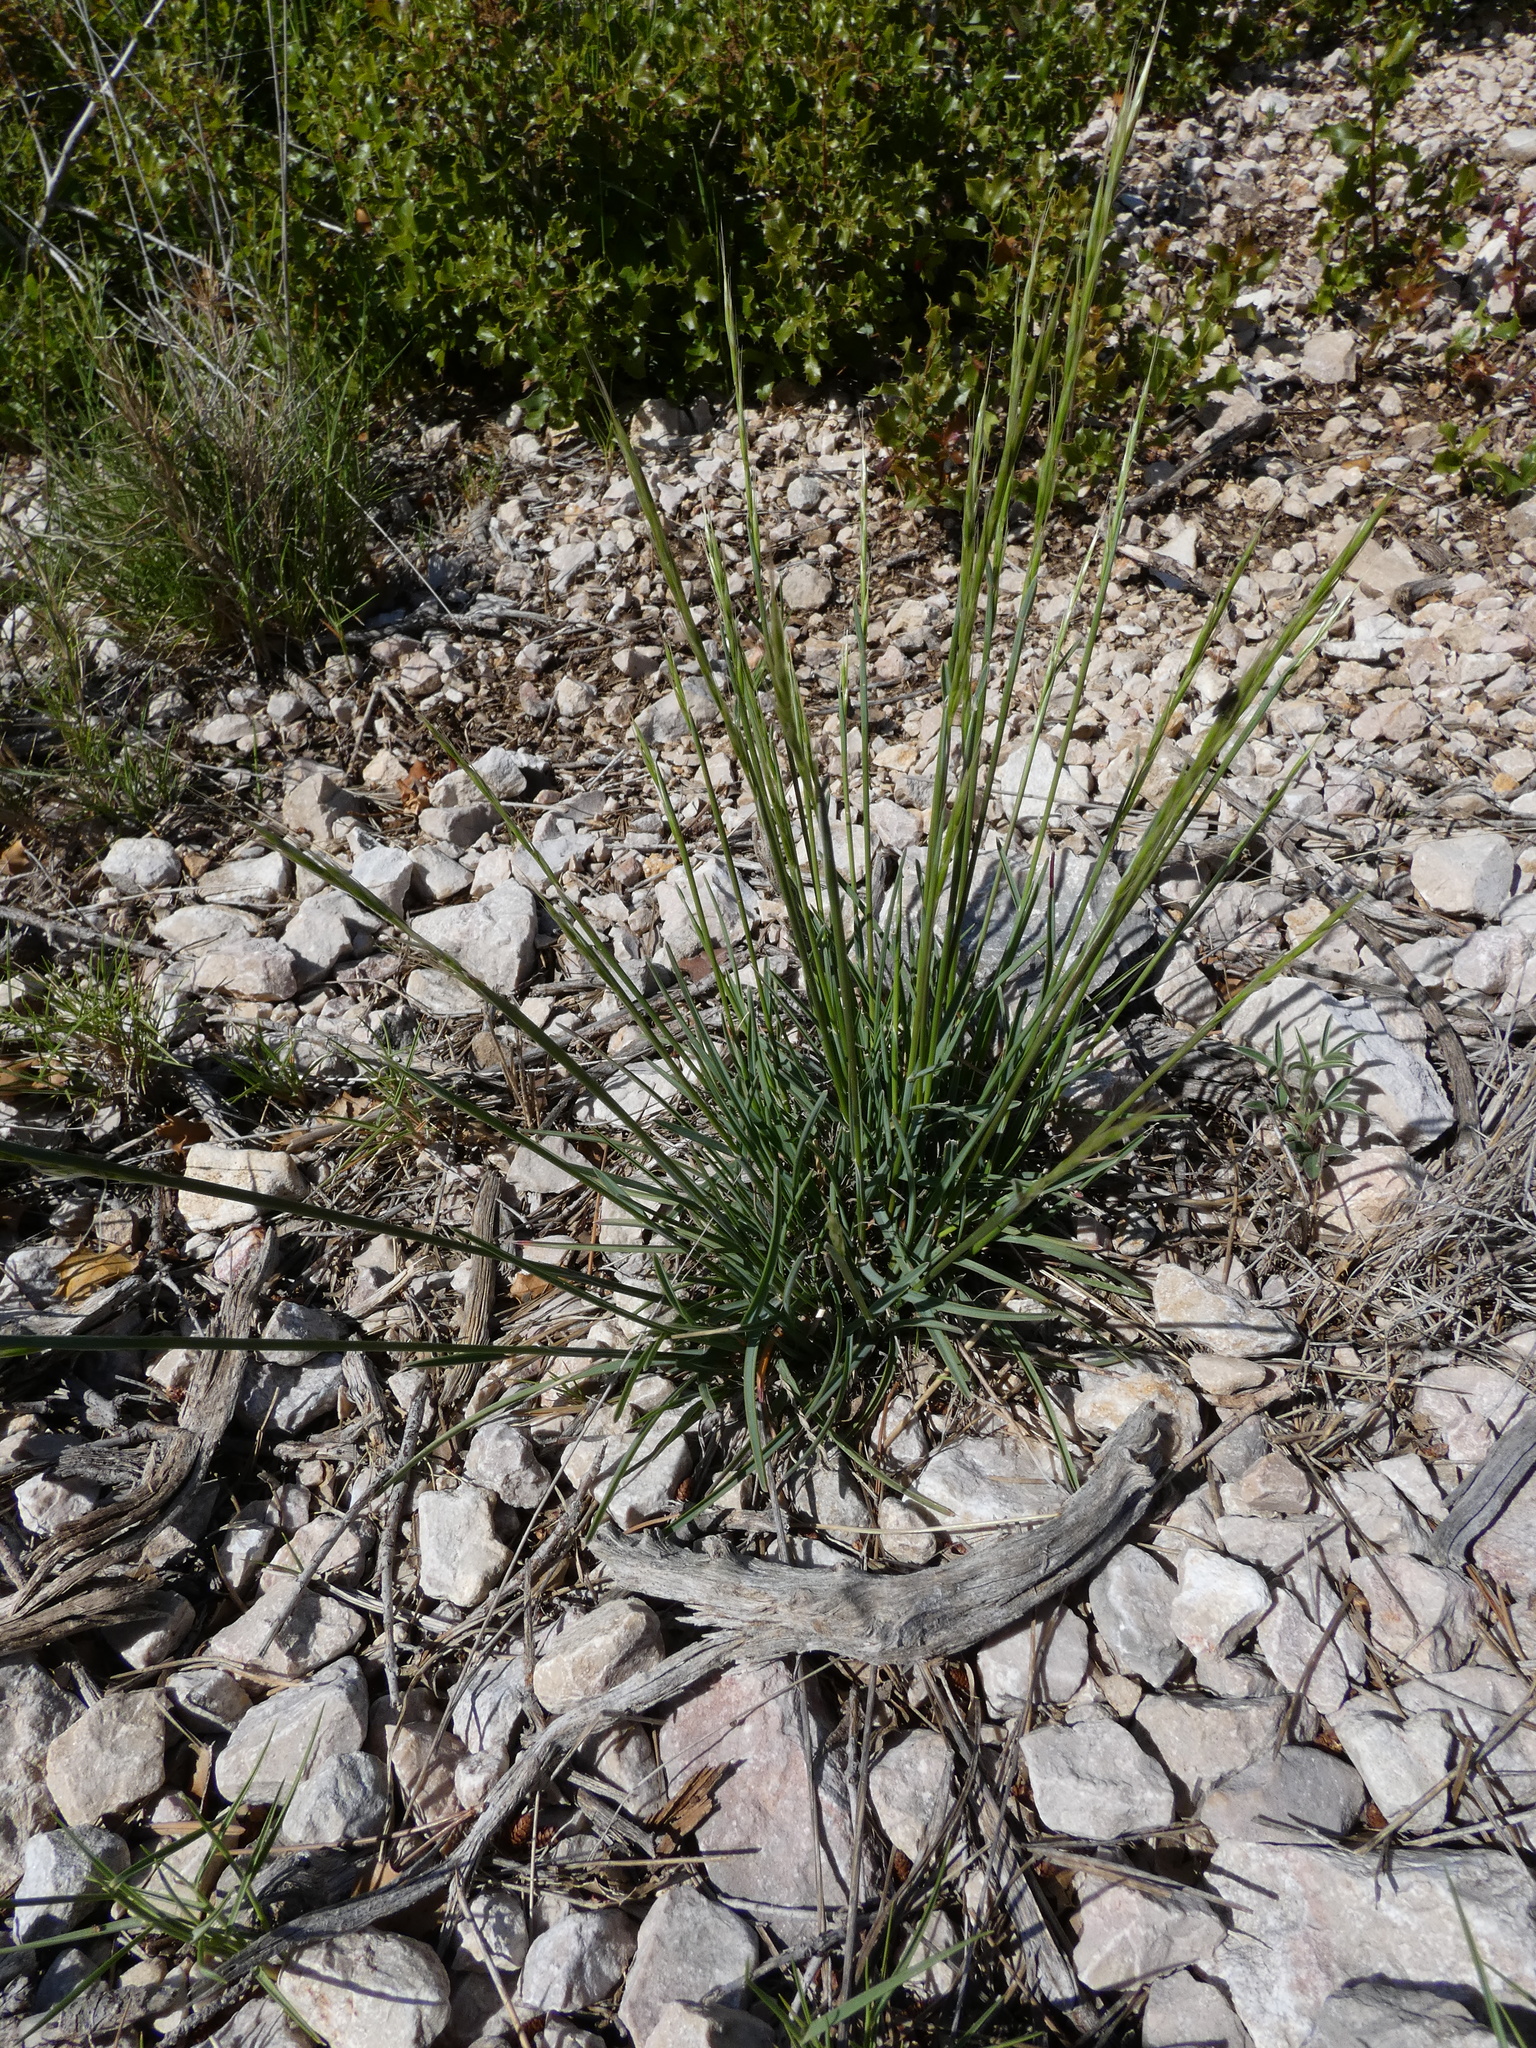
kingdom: Plantae
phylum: Tracheophyta
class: Liliopsida
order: Poales
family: Poaceae
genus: Helictochloa
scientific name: Helictochloa bromoides
